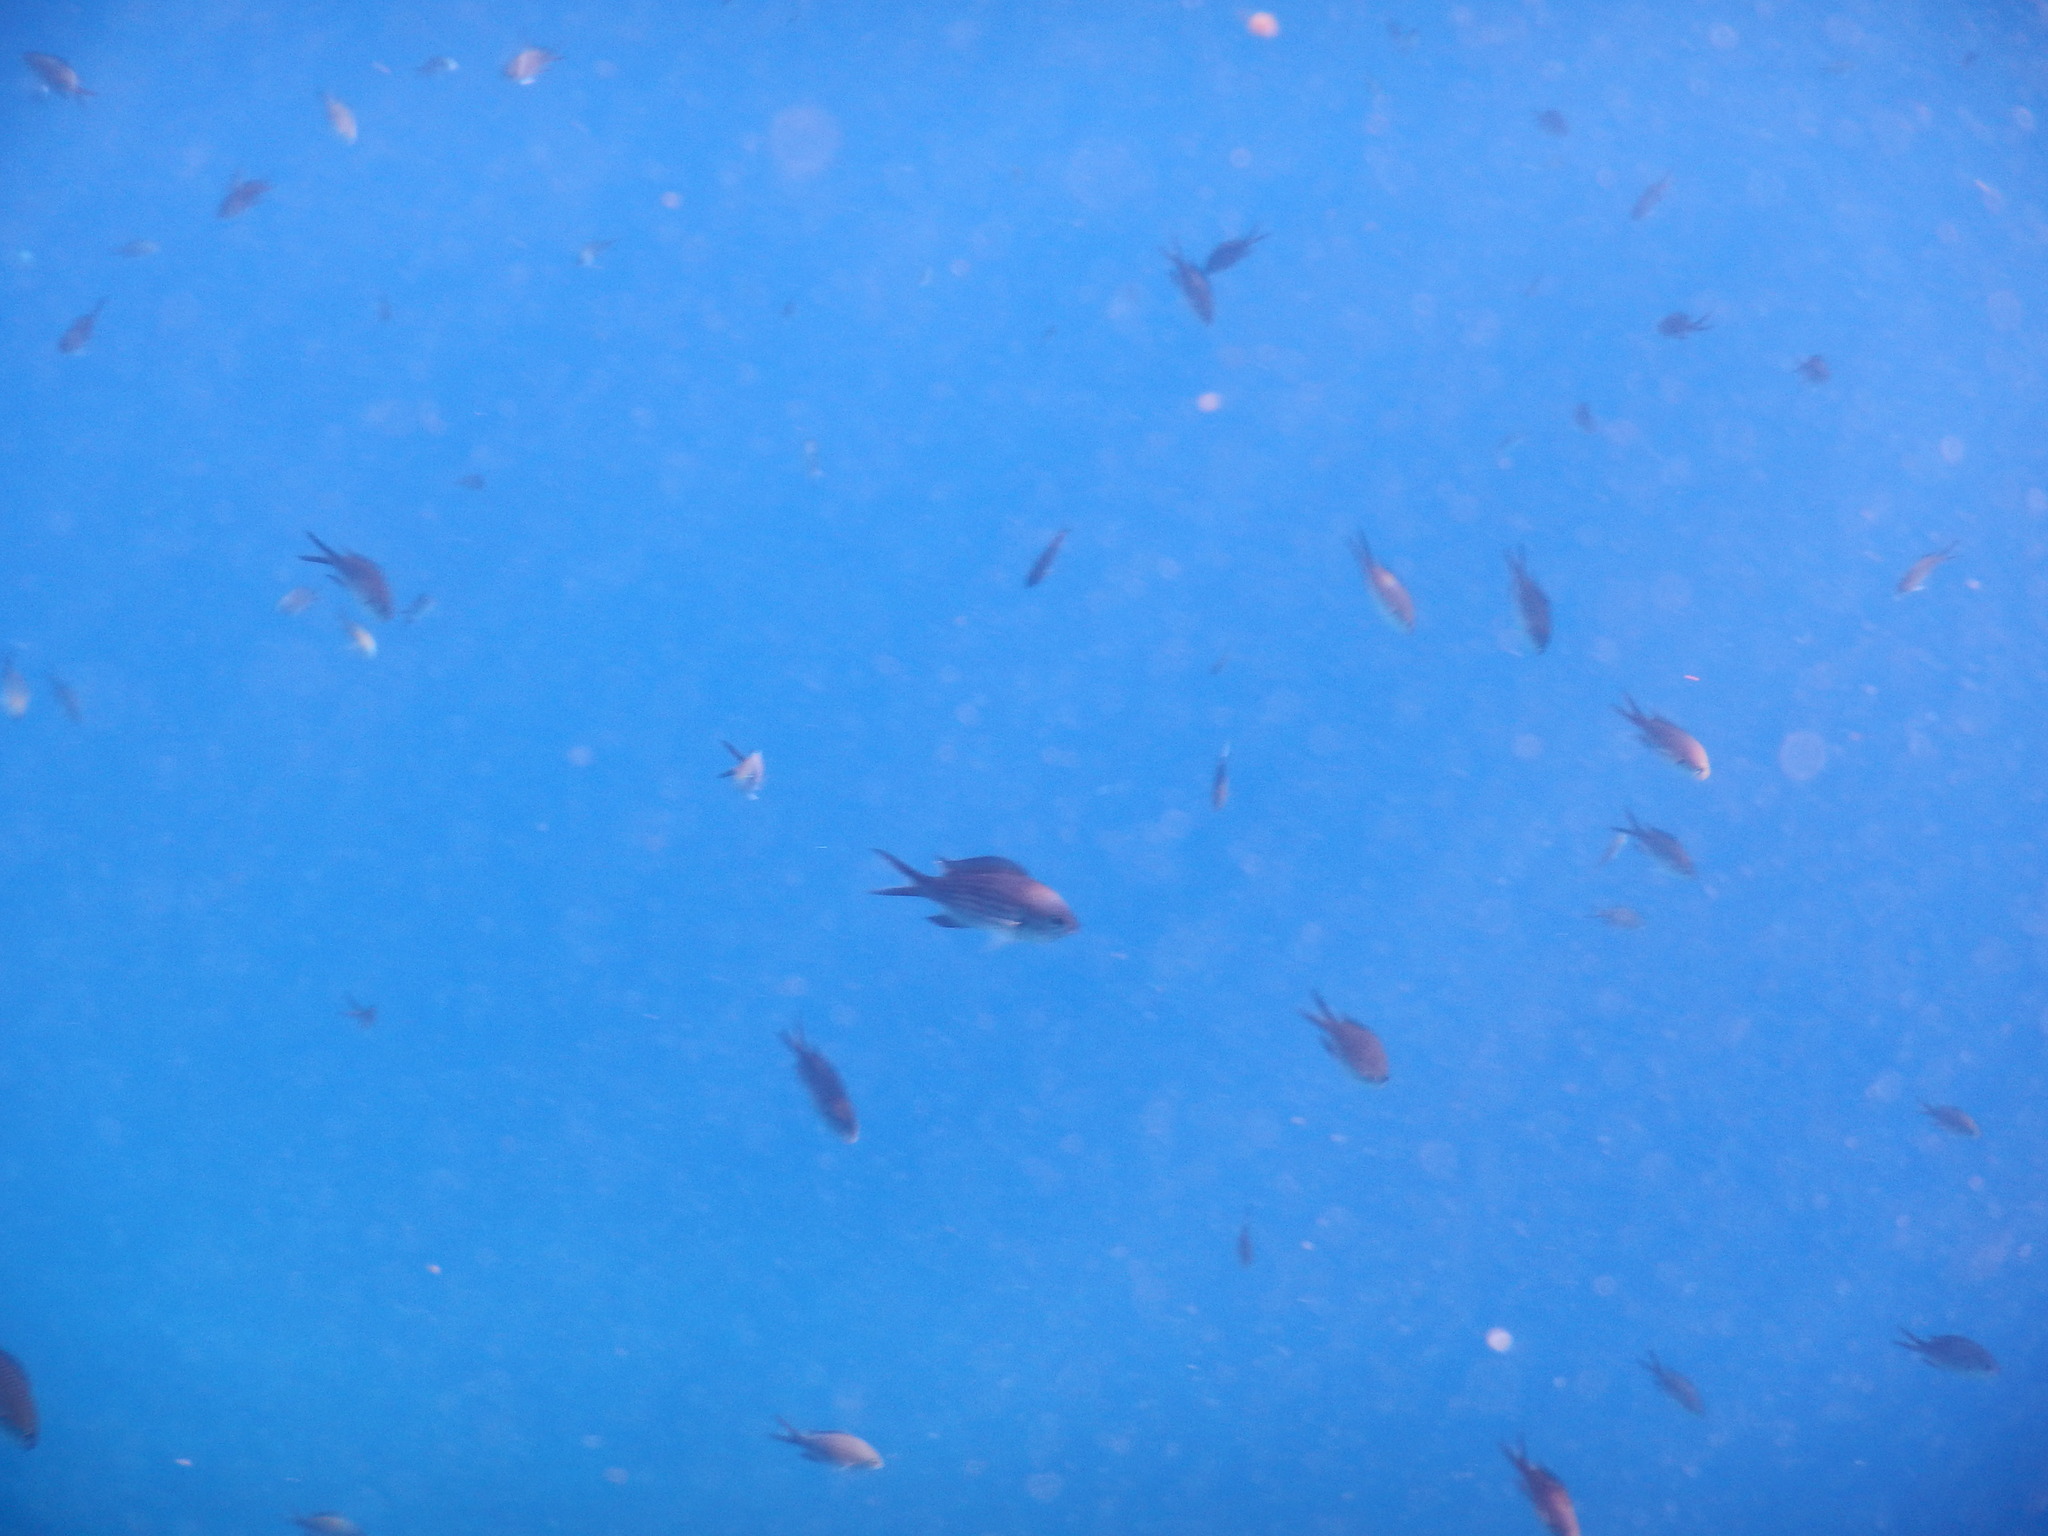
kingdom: Animalia
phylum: Chordata
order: Perciformes
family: Pomacentridae
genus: Chromis
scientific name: Chromis chromis
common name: Damselfish
